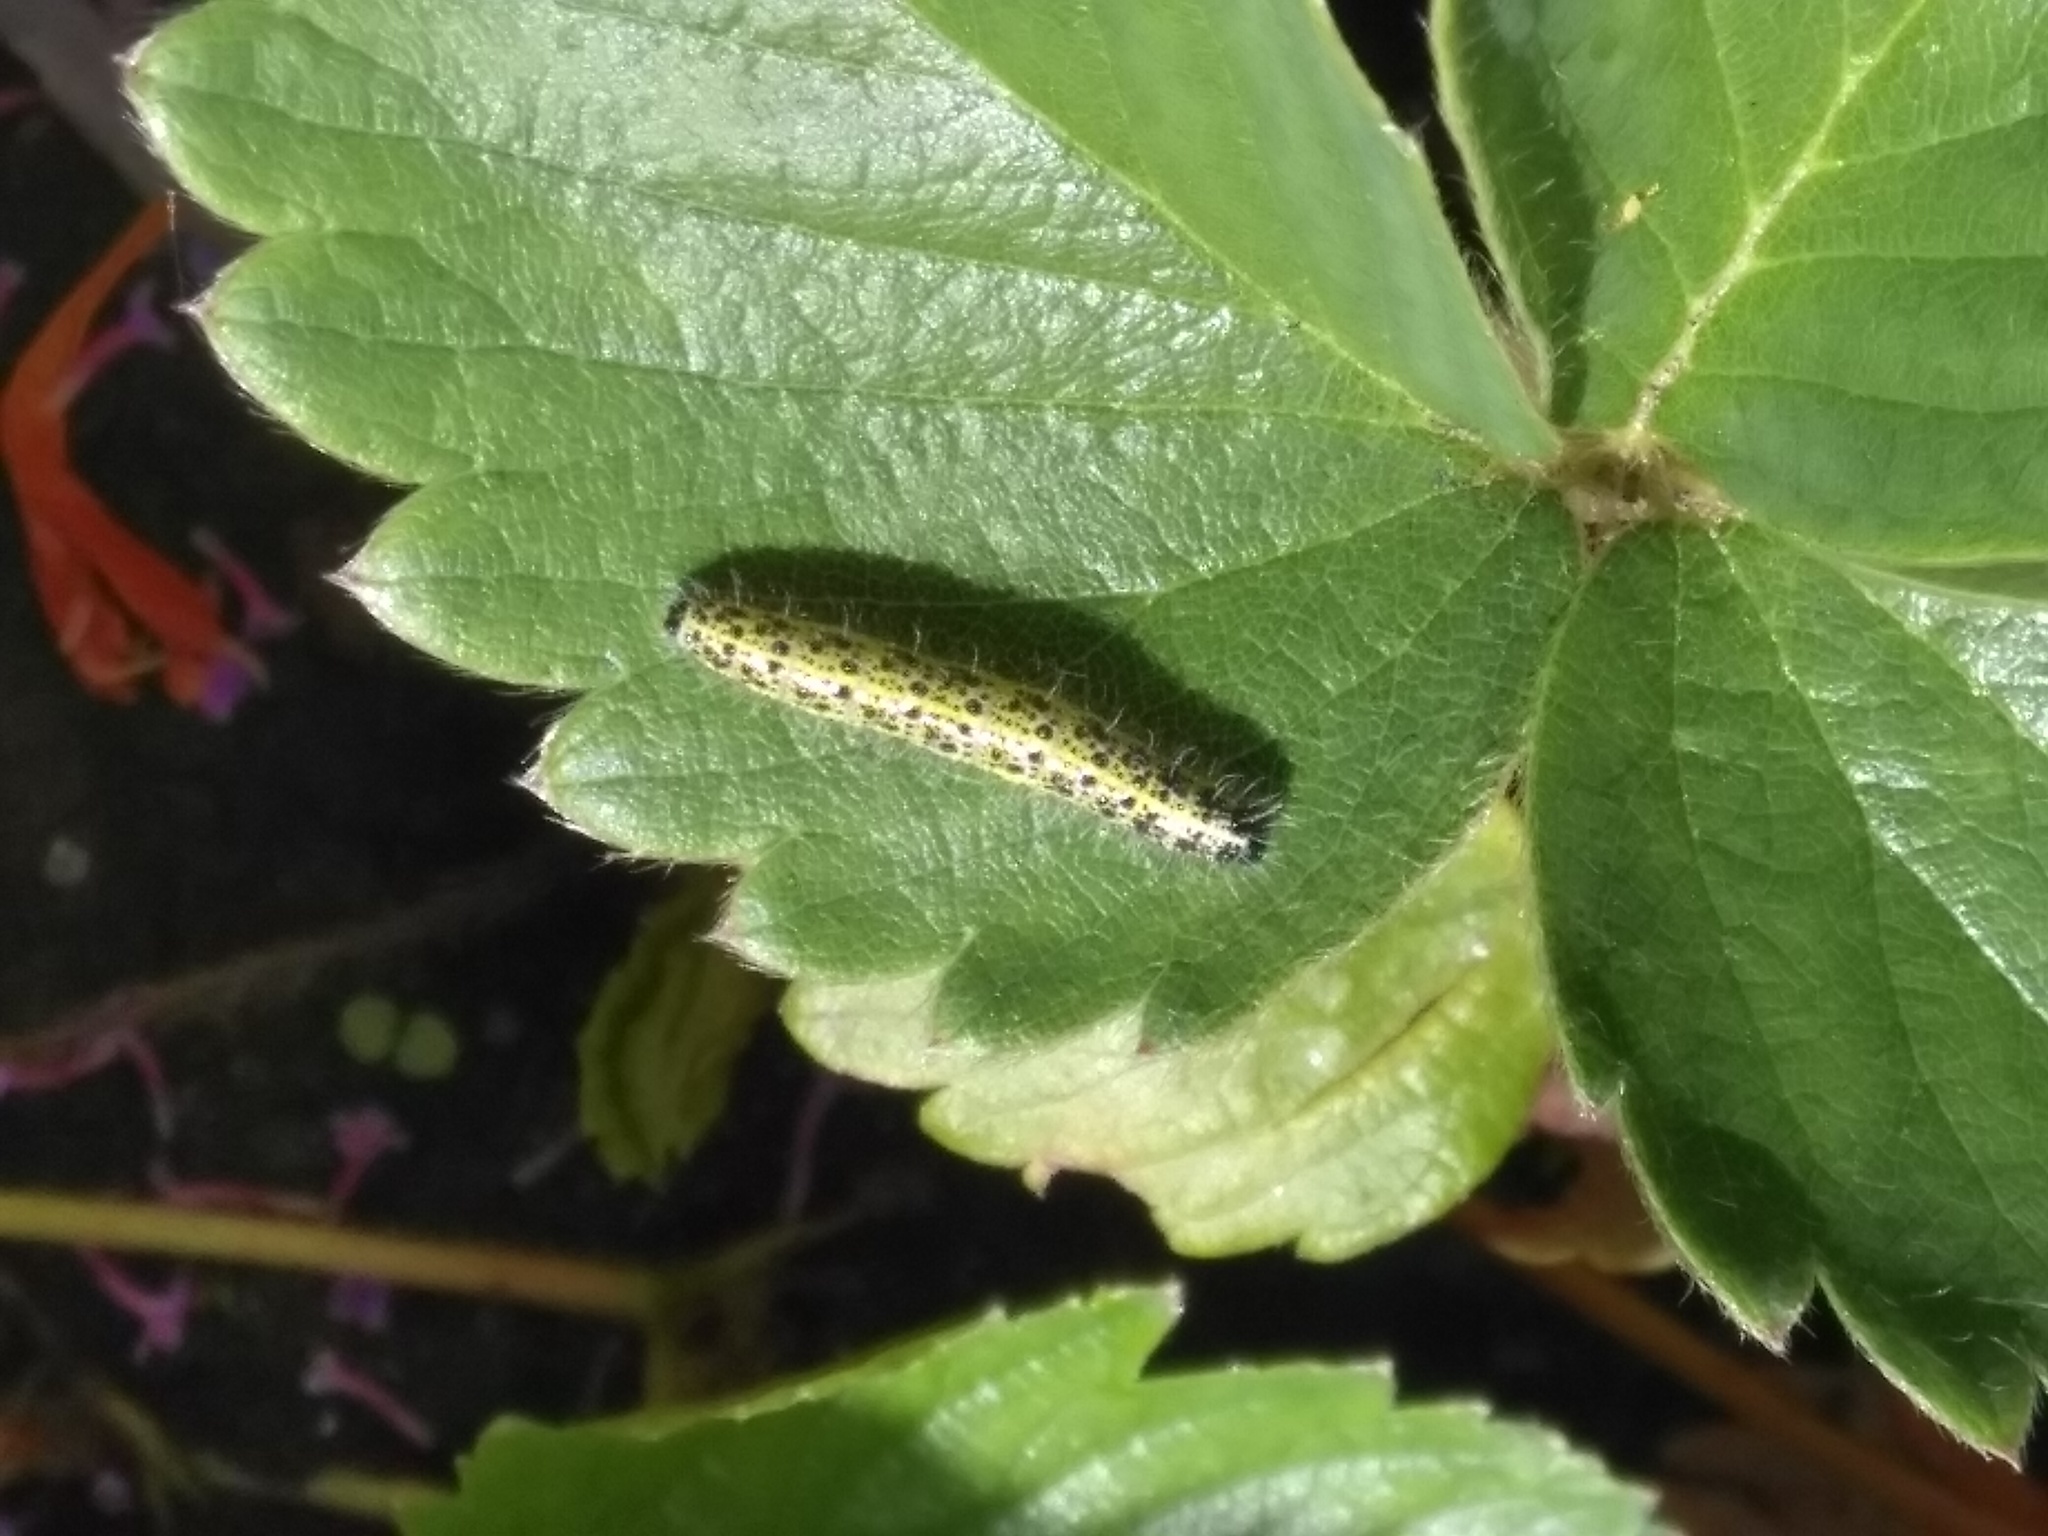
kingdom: Animalia
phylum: Arthropoda
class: Insecta
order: Lepidoptera
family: Pieridae
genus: Pieris
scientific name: Pieris brassicae
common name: Large white
